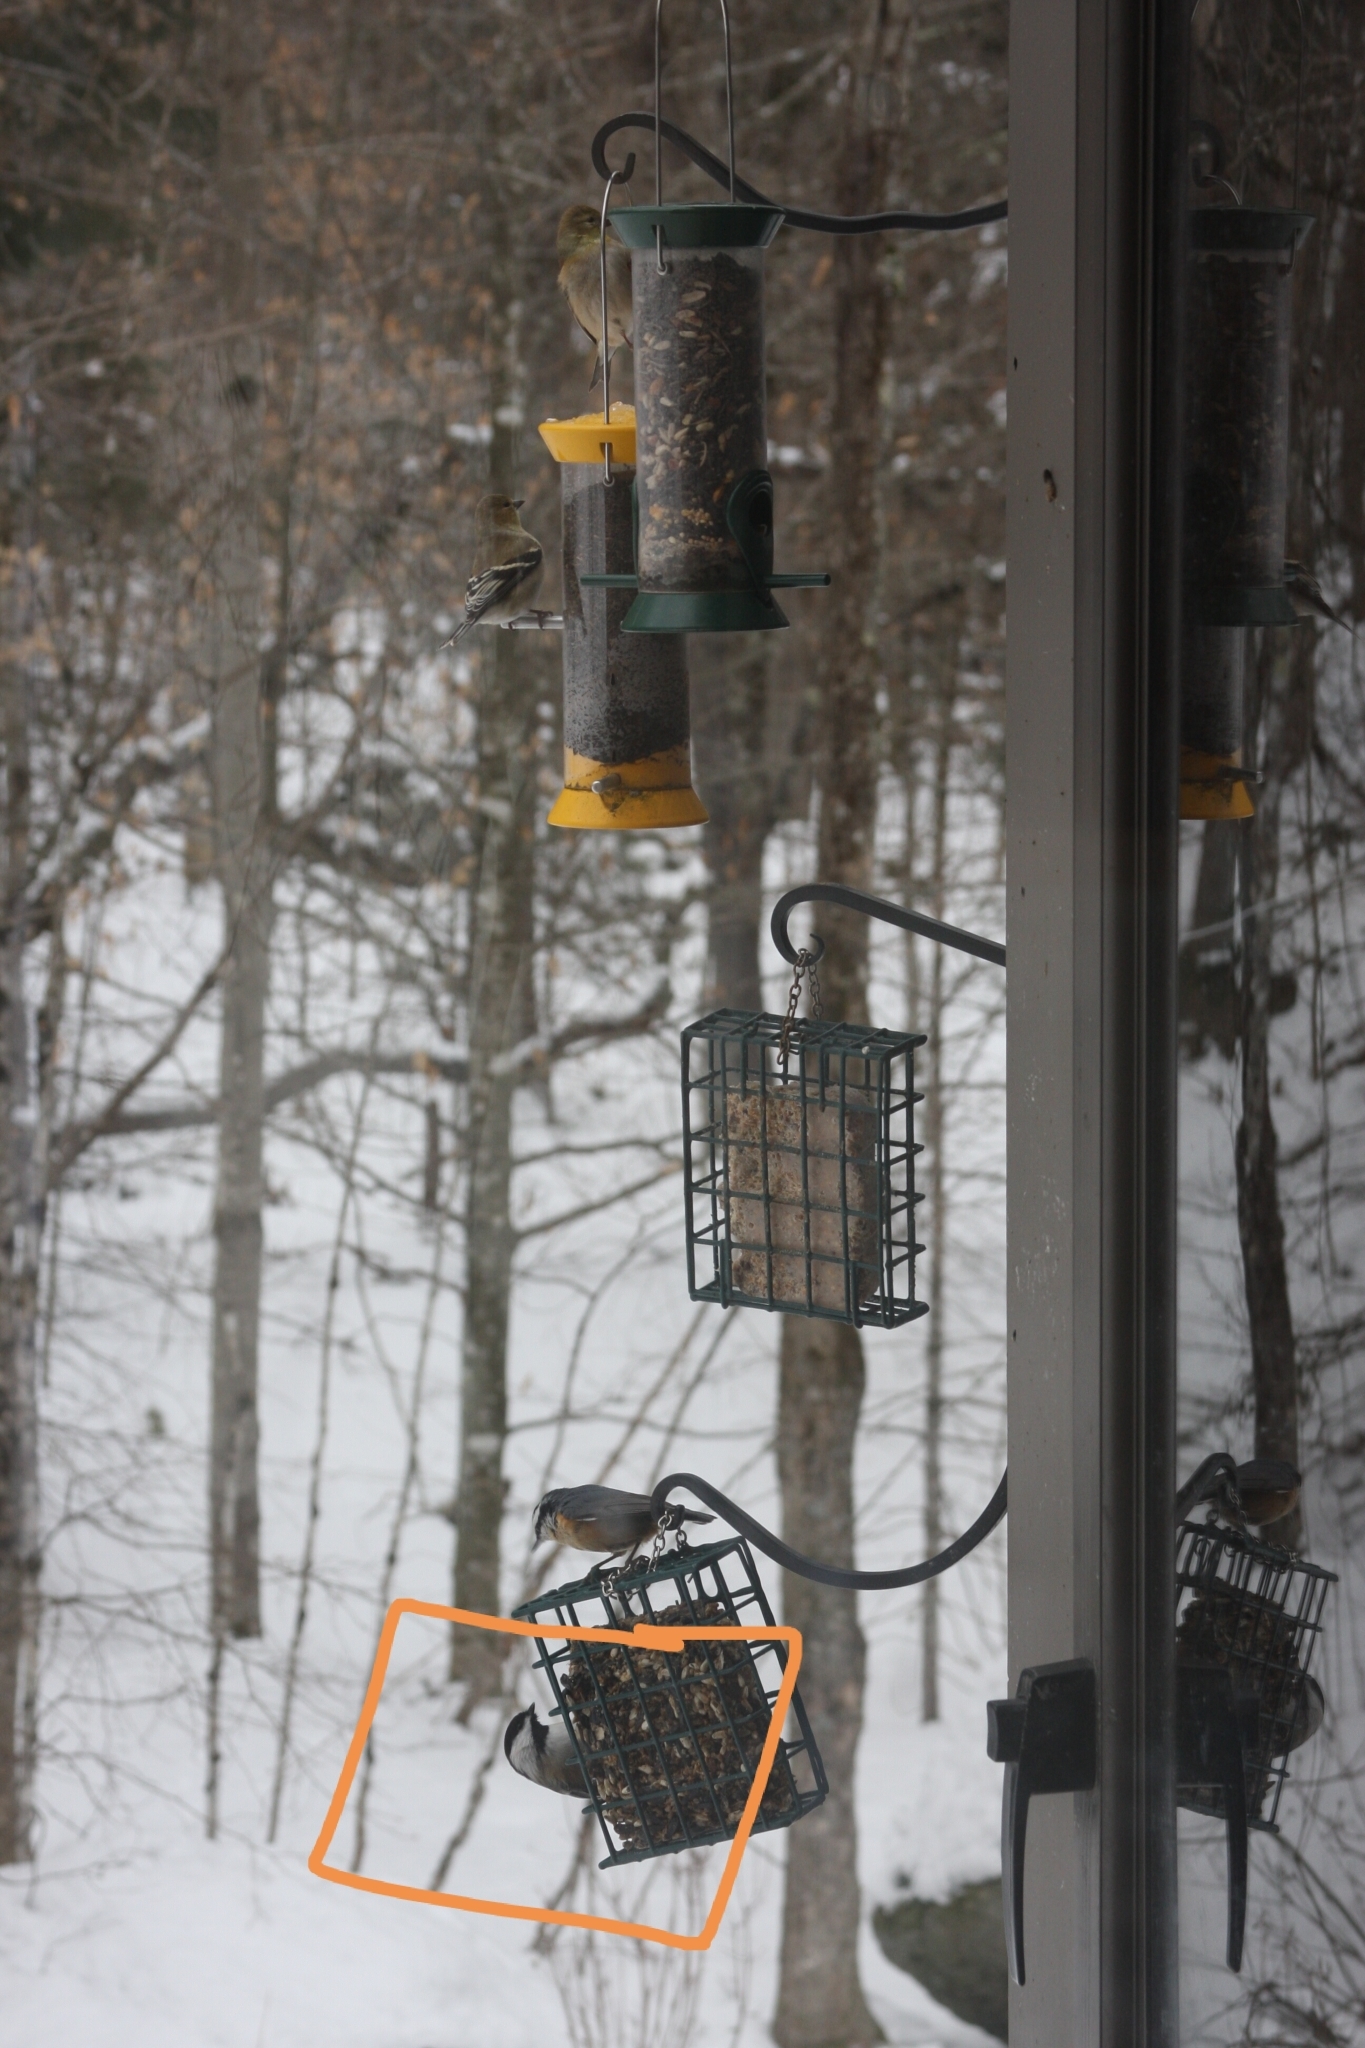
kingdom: Animalia
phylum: Chordata
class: Aves
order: Passeriformes
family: Paridae
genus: Poecile
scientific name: Poecile atricapillus
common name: Black-capped chickadee
